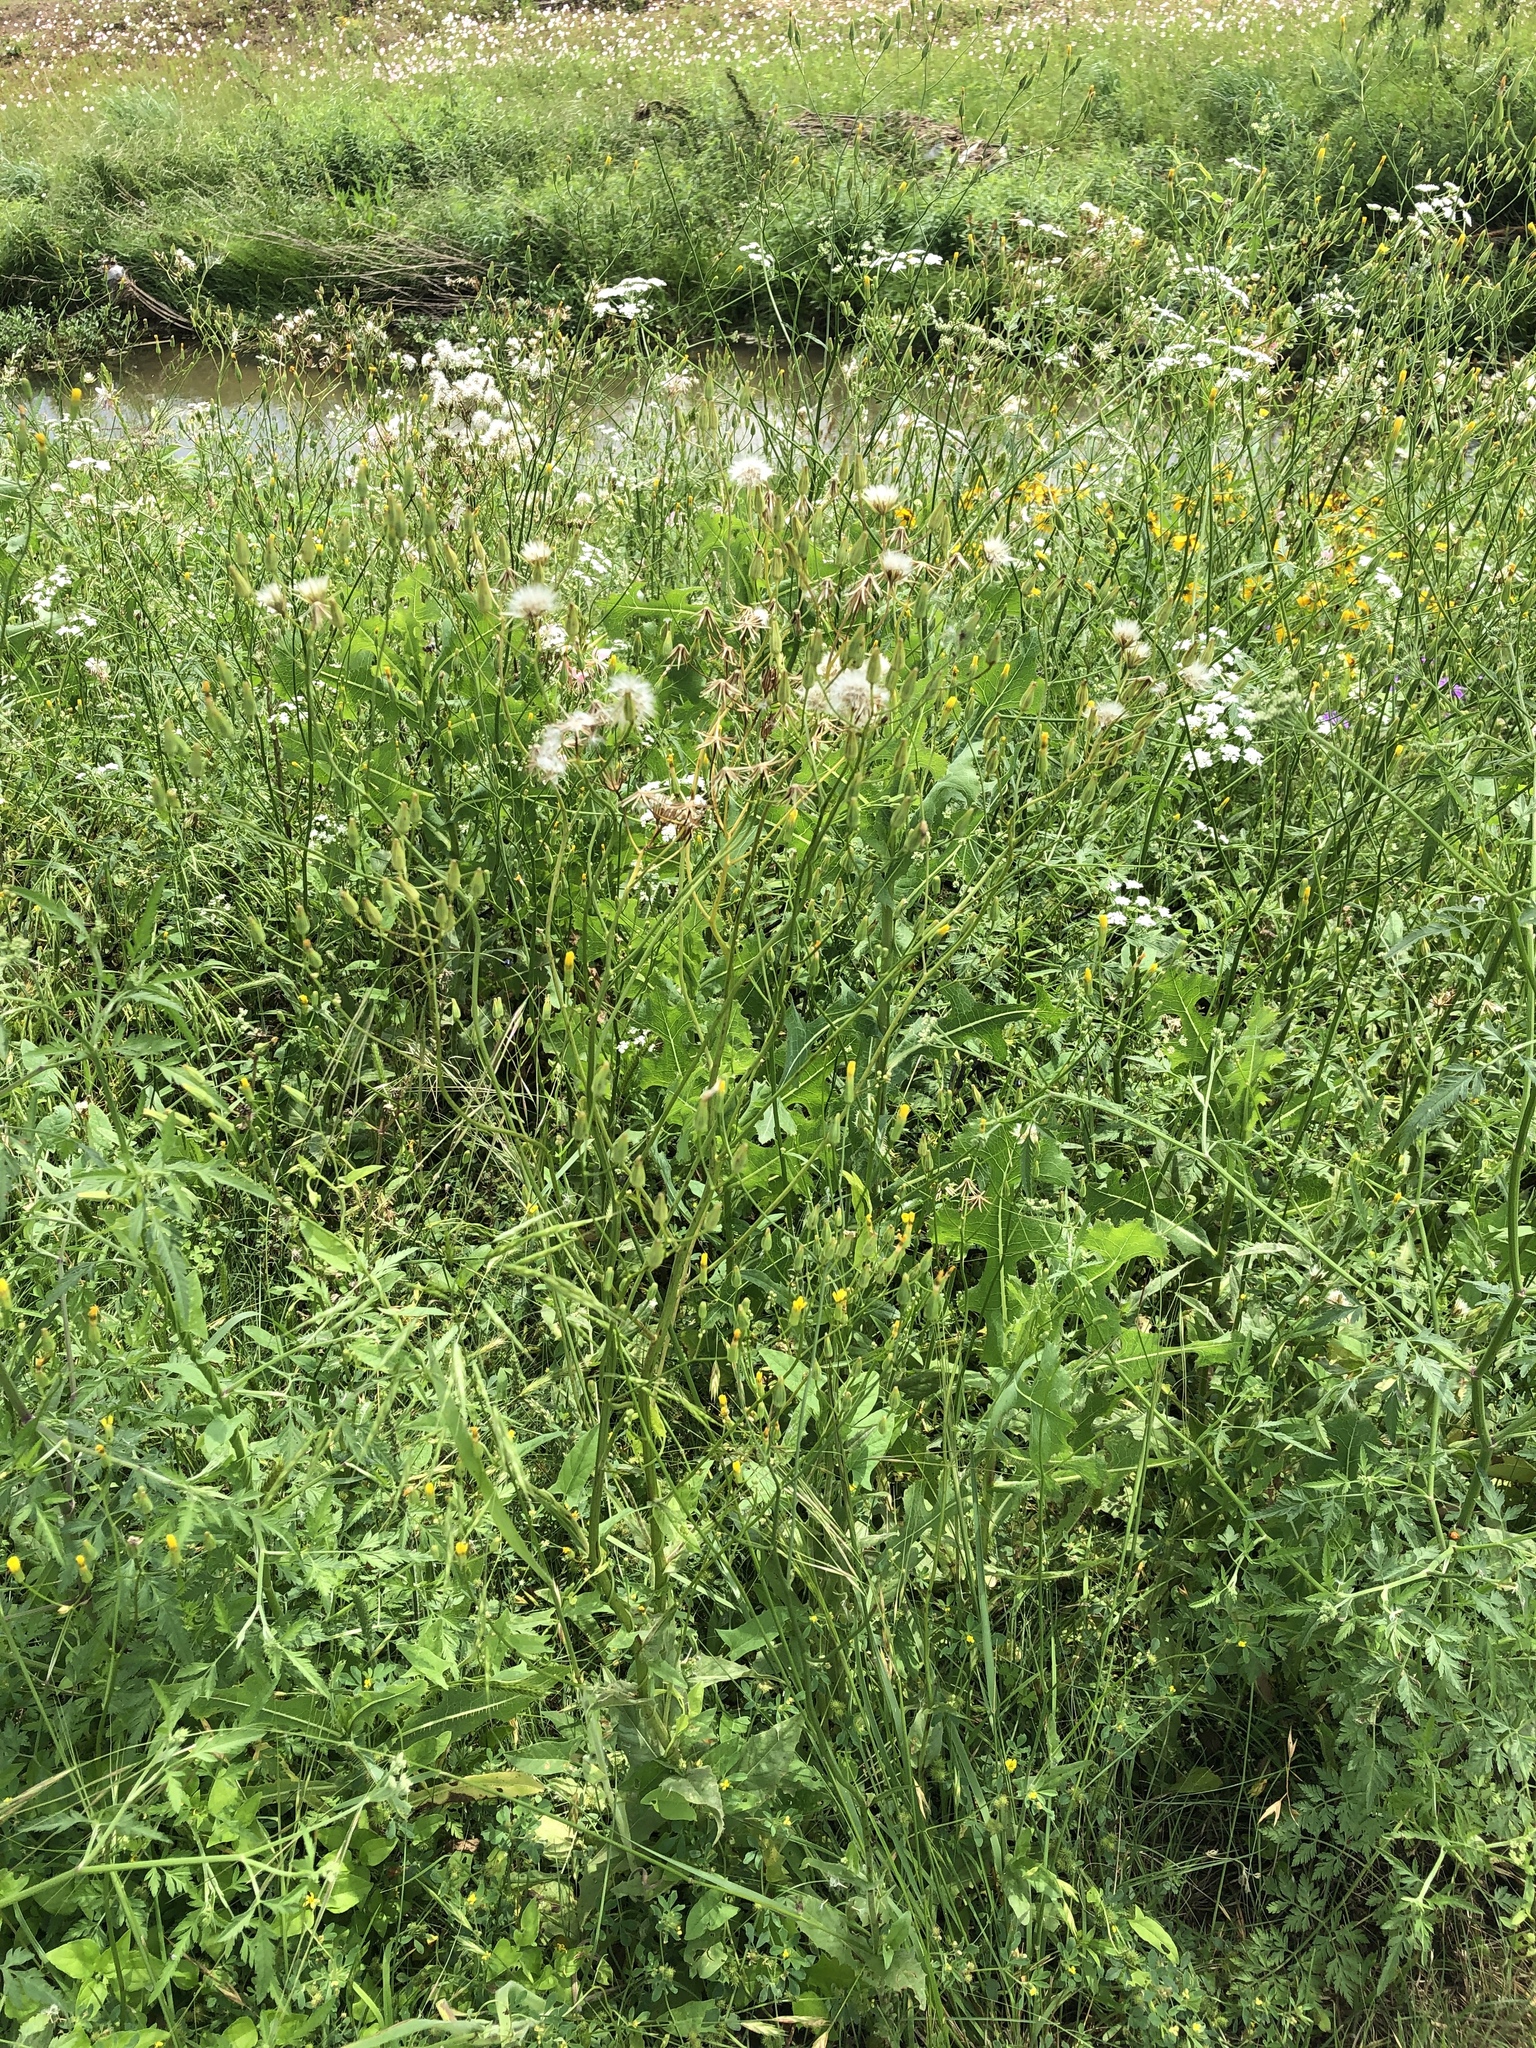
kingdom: Plantae
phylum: Tracheophyta
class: Magnoliopsida
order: Asterales
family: Asteraceae
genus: Crepis
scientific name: Crepis pulchra
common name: Hawk's-beard
